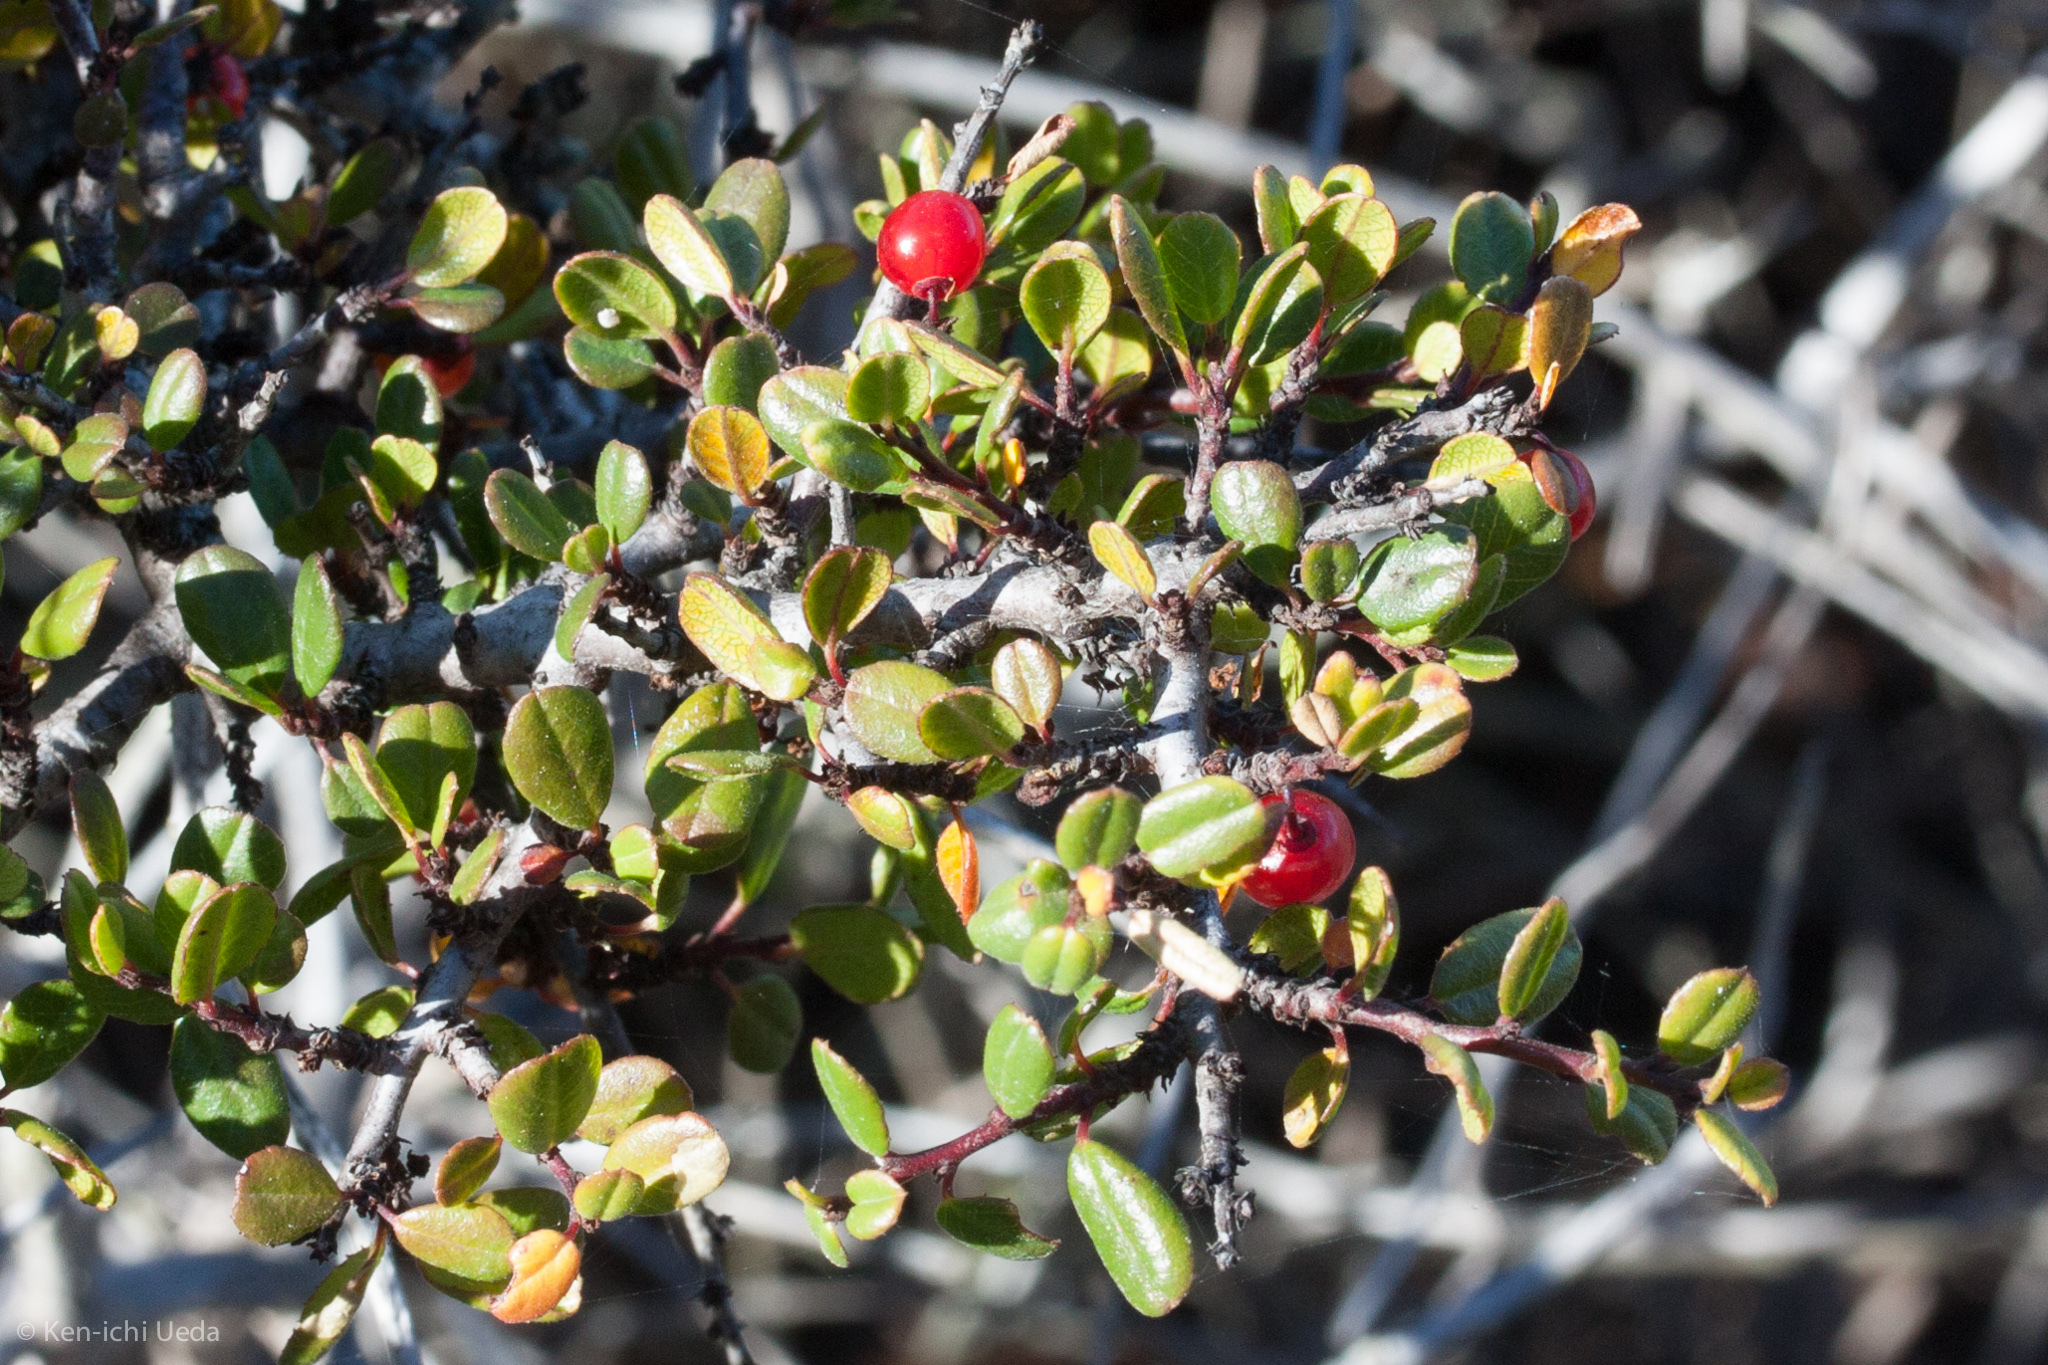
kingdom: Plantae
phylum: Tracheophyta
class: Magnoliopsida
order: Rosales
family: Rhamnaceae
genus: Endotropis
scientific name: Endotropis crocea
